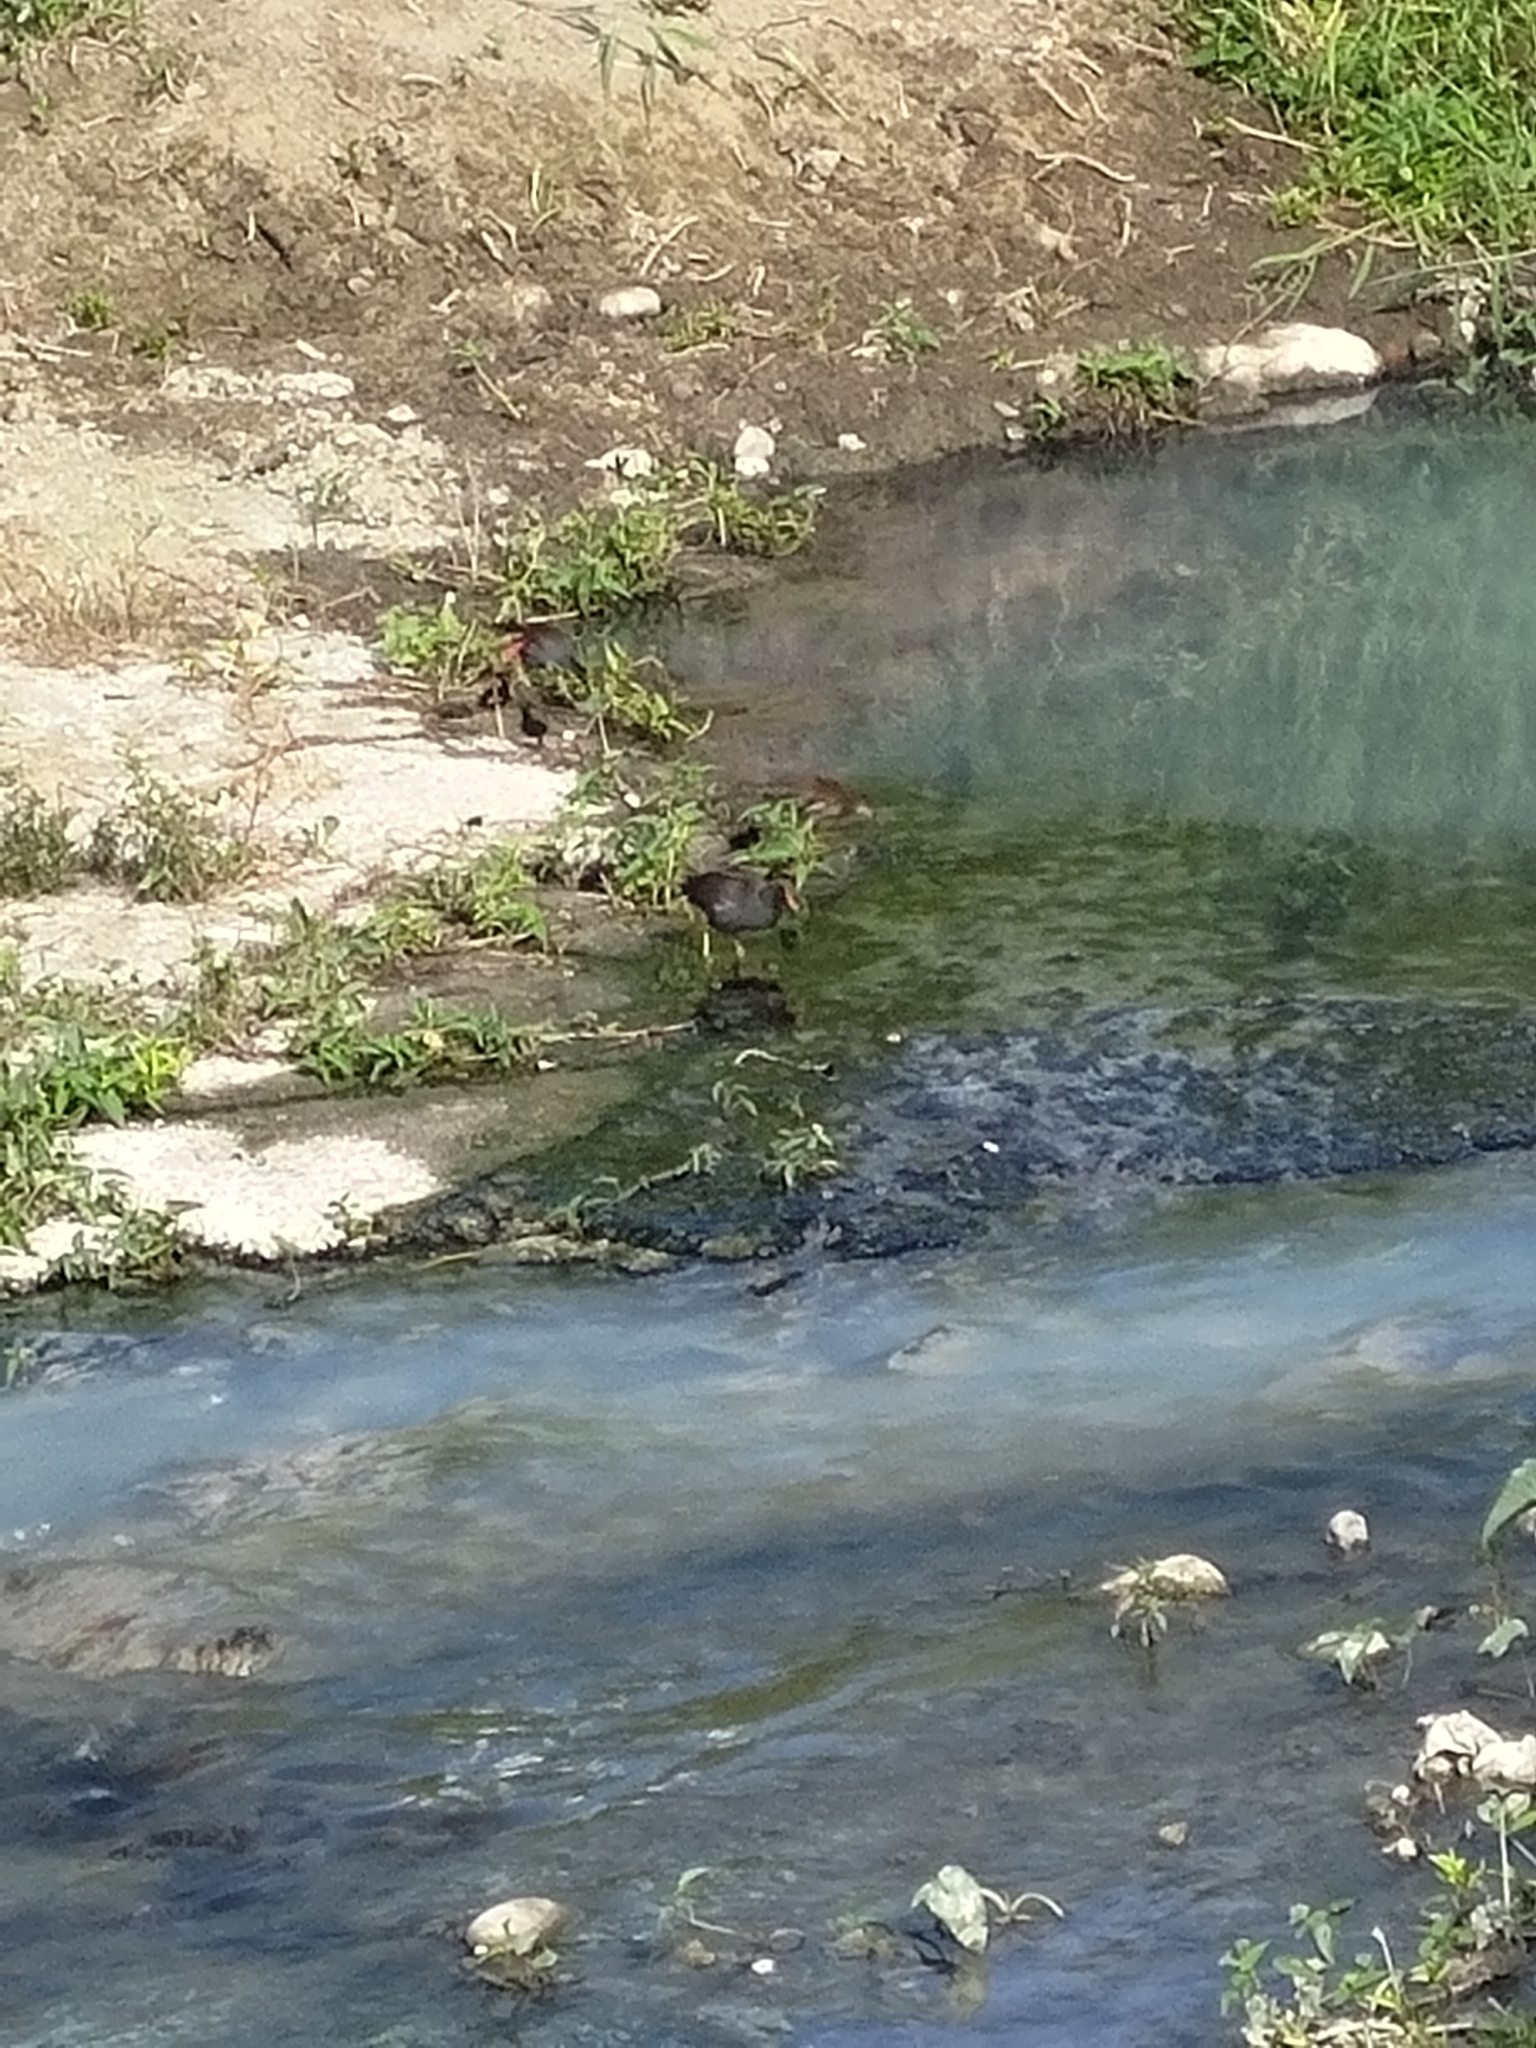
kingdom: Animalia
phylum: Chordata
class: Aves
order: Gruiformes
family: Rallidae
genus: Gallinula
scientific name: Gallinula chloropus
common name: Common moorhen
